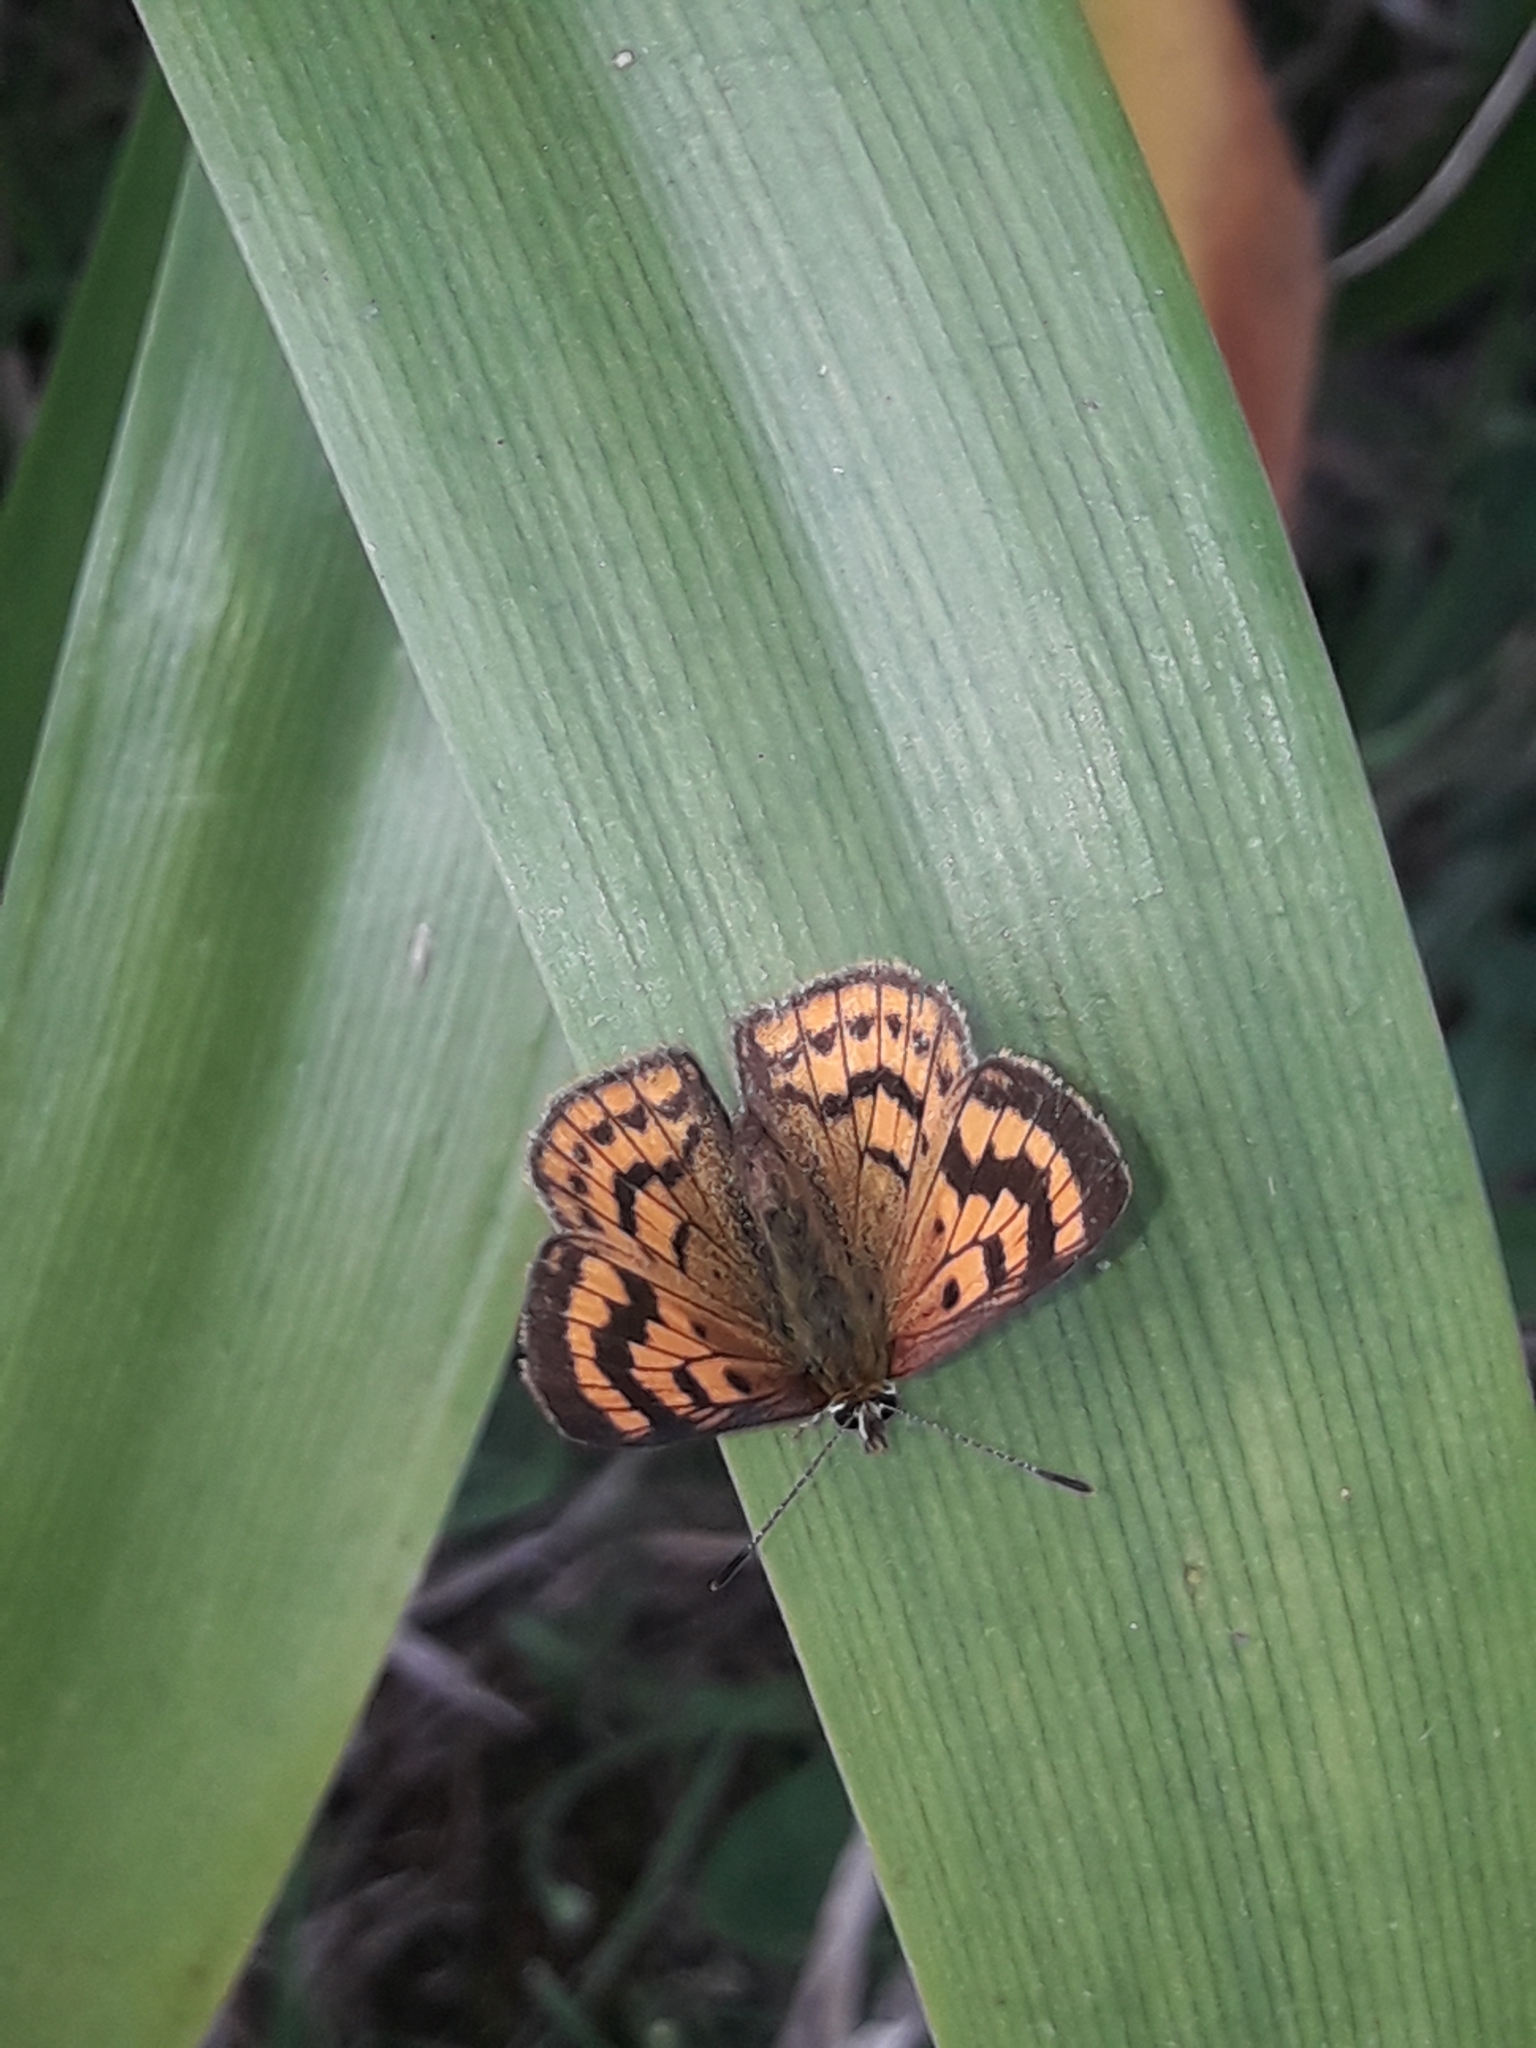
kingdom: Animalia
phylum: Arthropoda
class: Insecta
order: Lepidoptera
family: Lycaenidae
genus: Lycaena
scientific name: Lycaena salustius
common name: North island coastal copper
